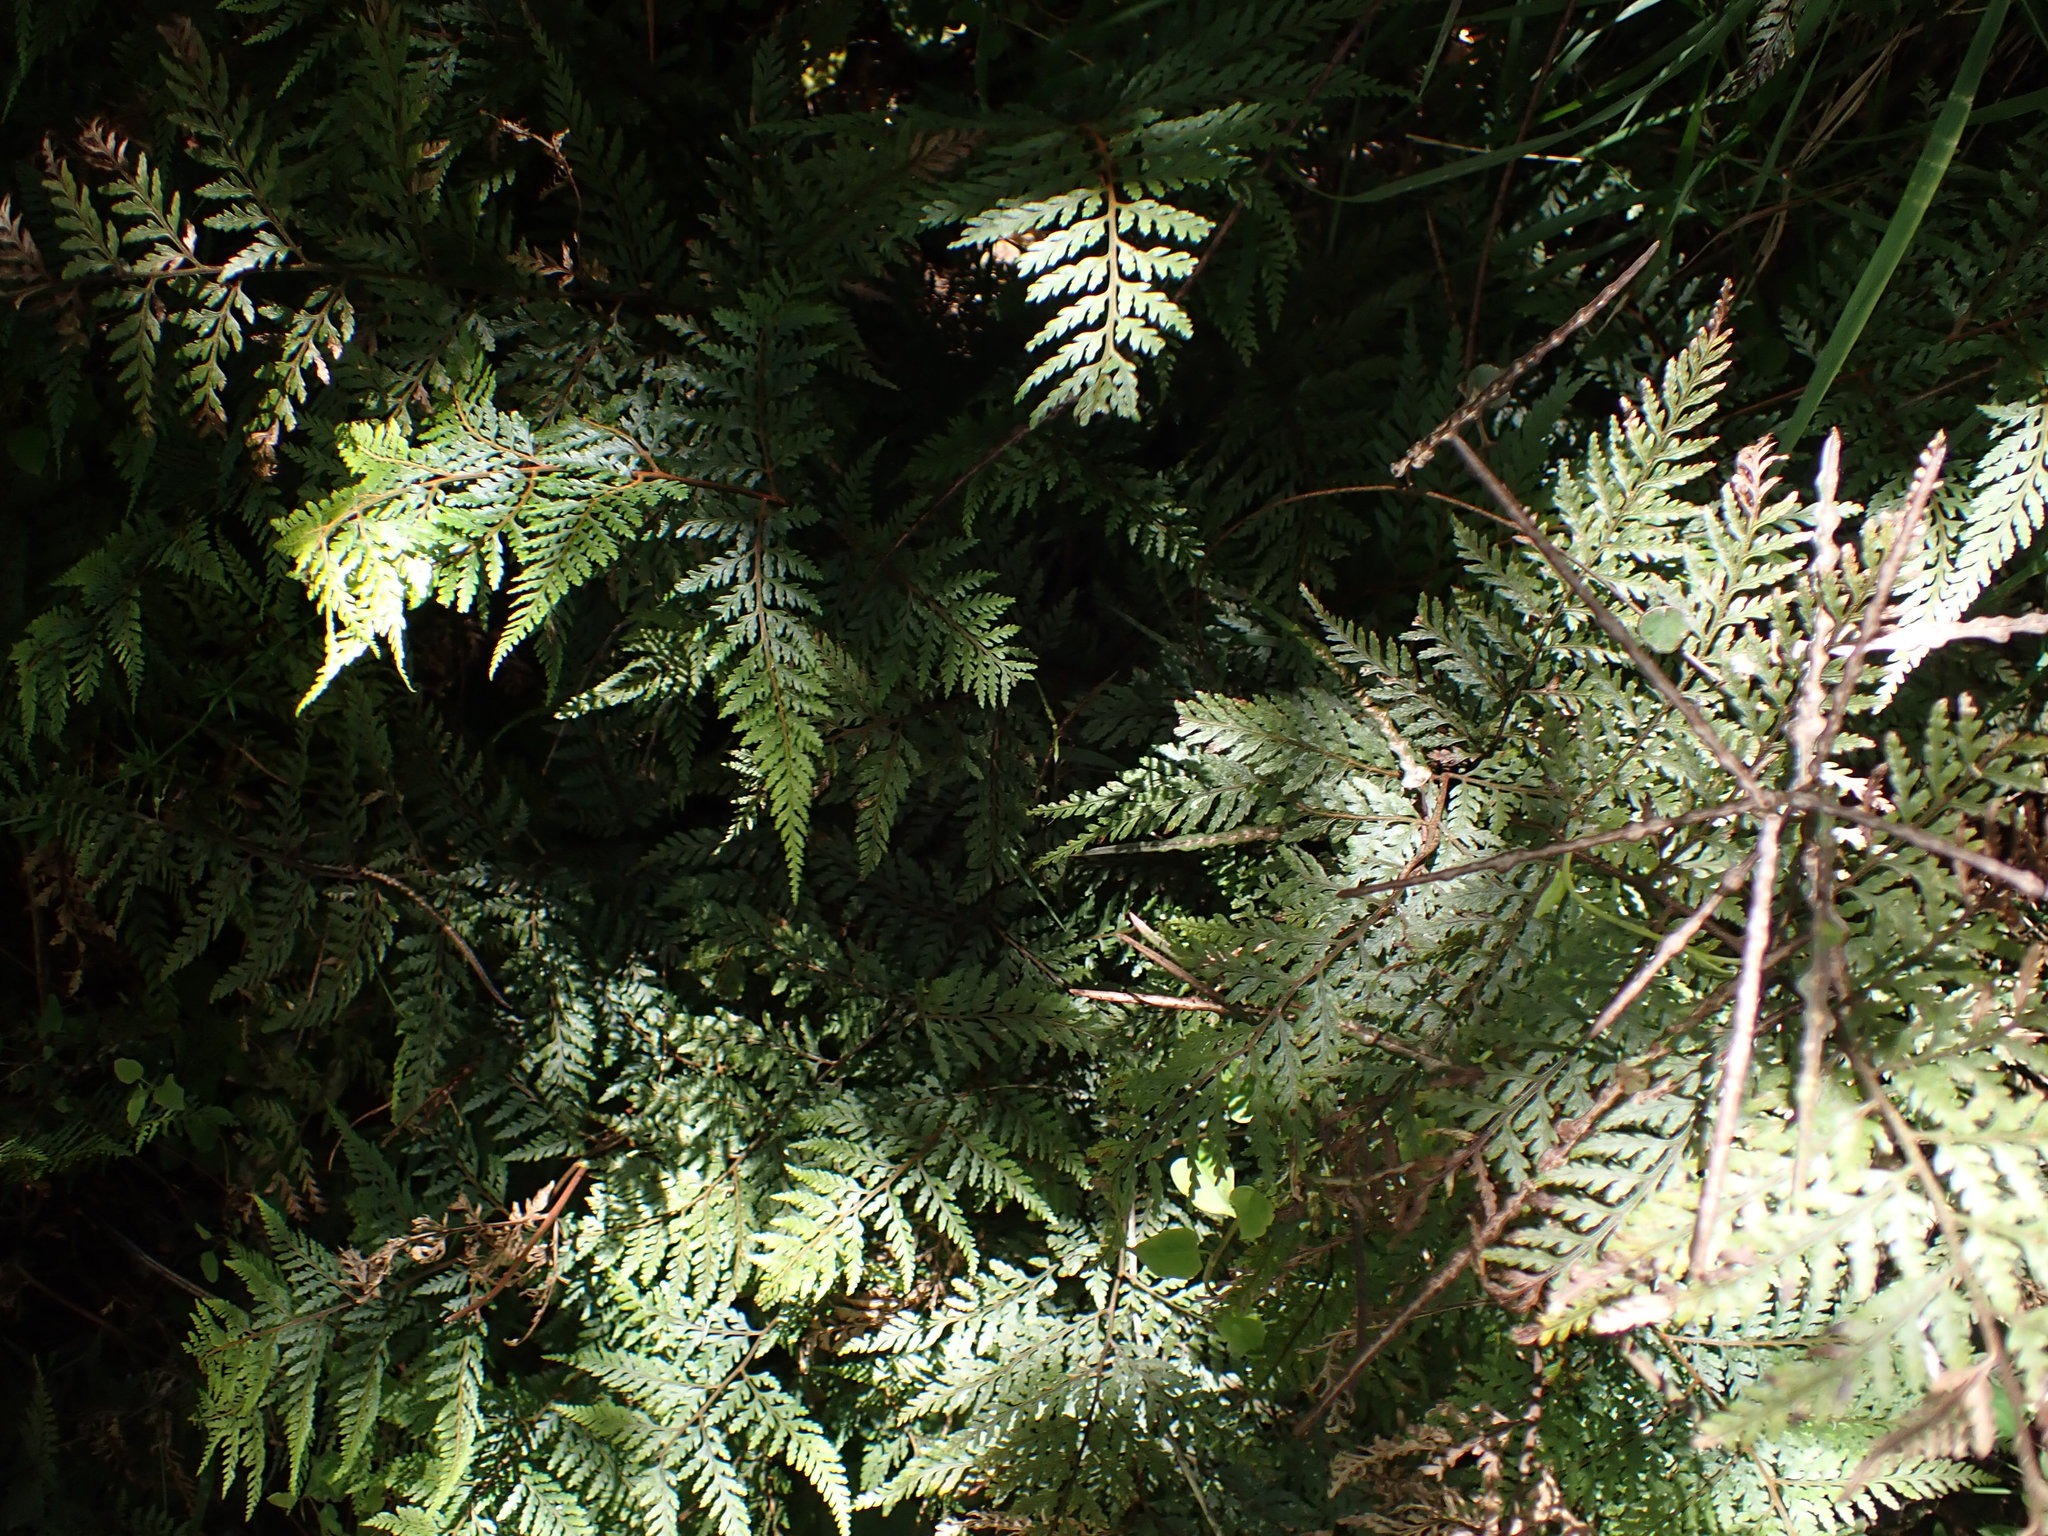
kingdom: Plantae
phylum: Tracheophyta
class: Polypodiopsida
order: Polypodiales
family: Dryopteridaceae
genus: Parapolystichum
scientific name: Parapolystichum microsorum
